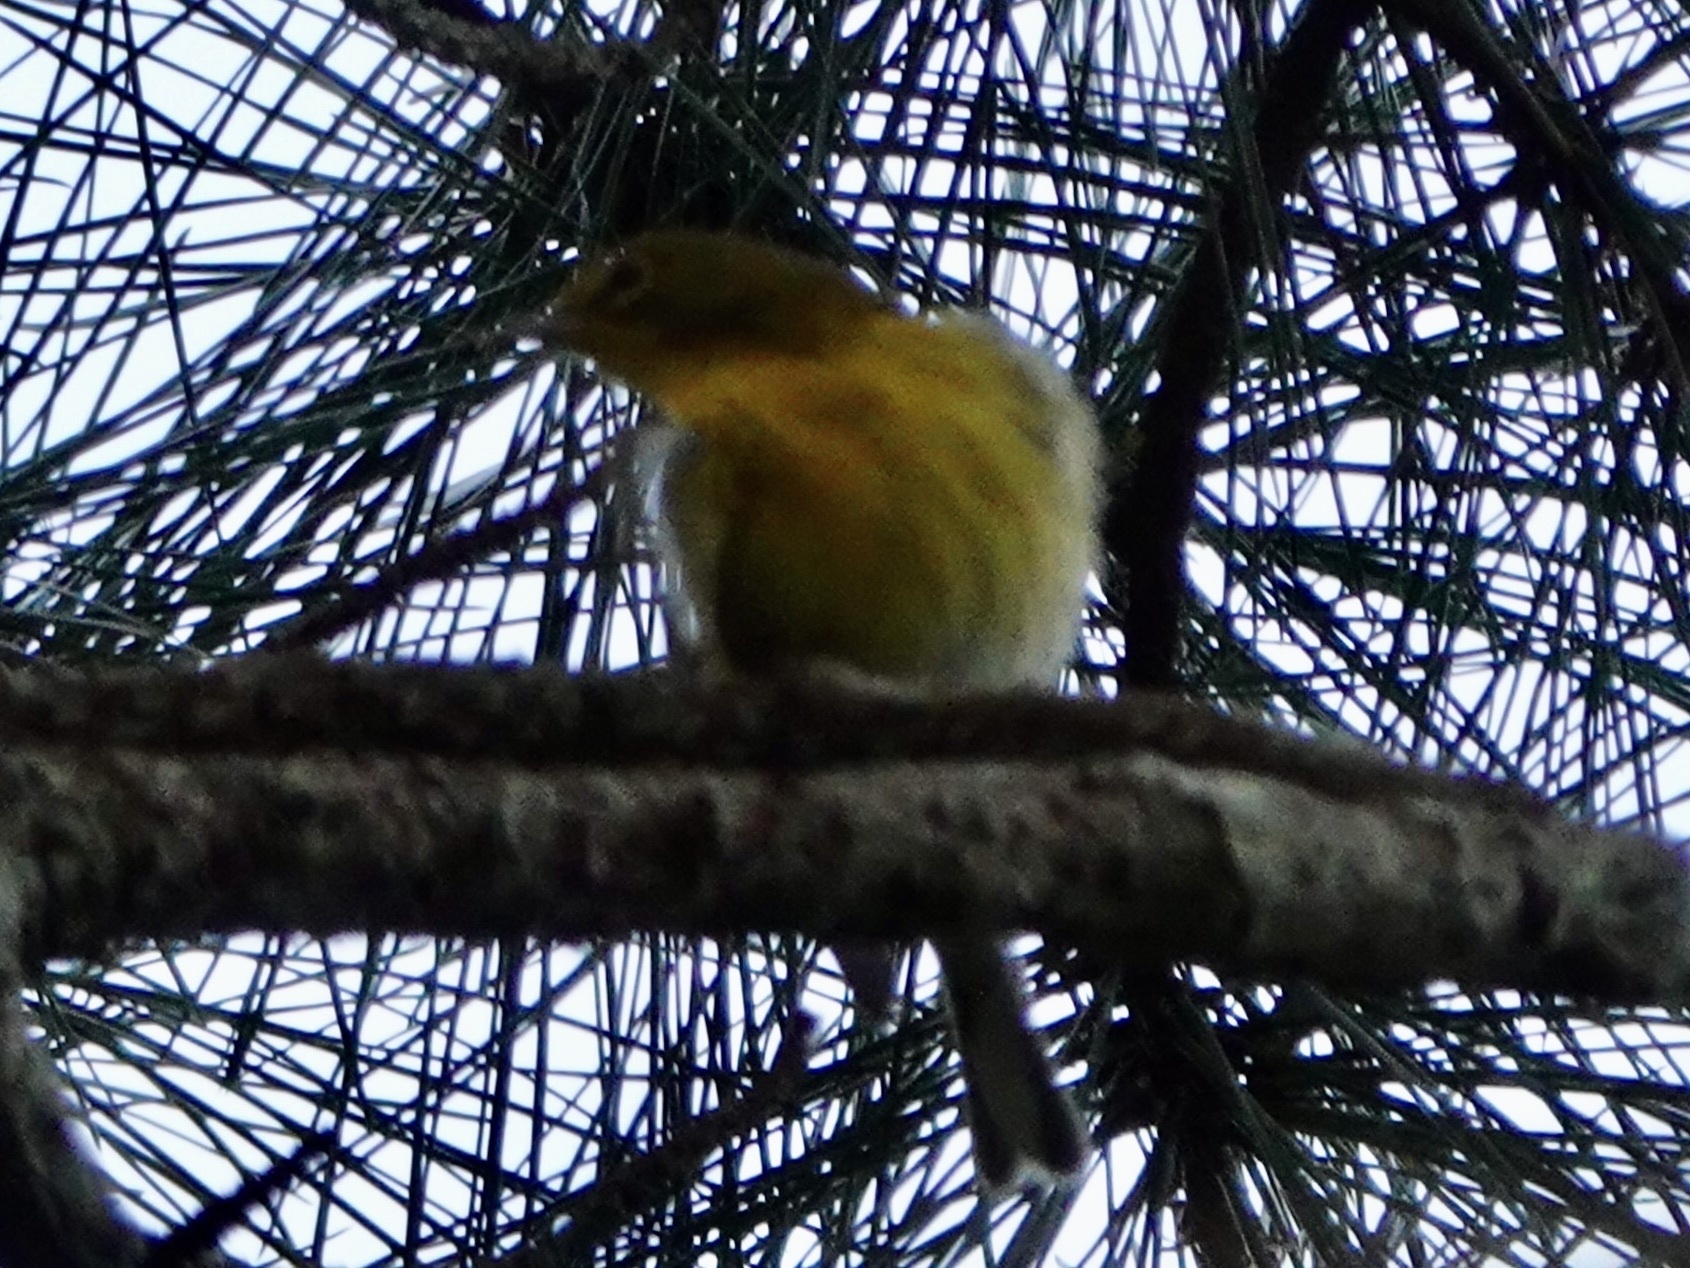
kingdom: Animalia
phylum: Chordata
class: Aves
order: Passeriformes
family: Parulidae
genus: Setophaga
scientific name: Setophaga pinus
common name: Pine warbler
